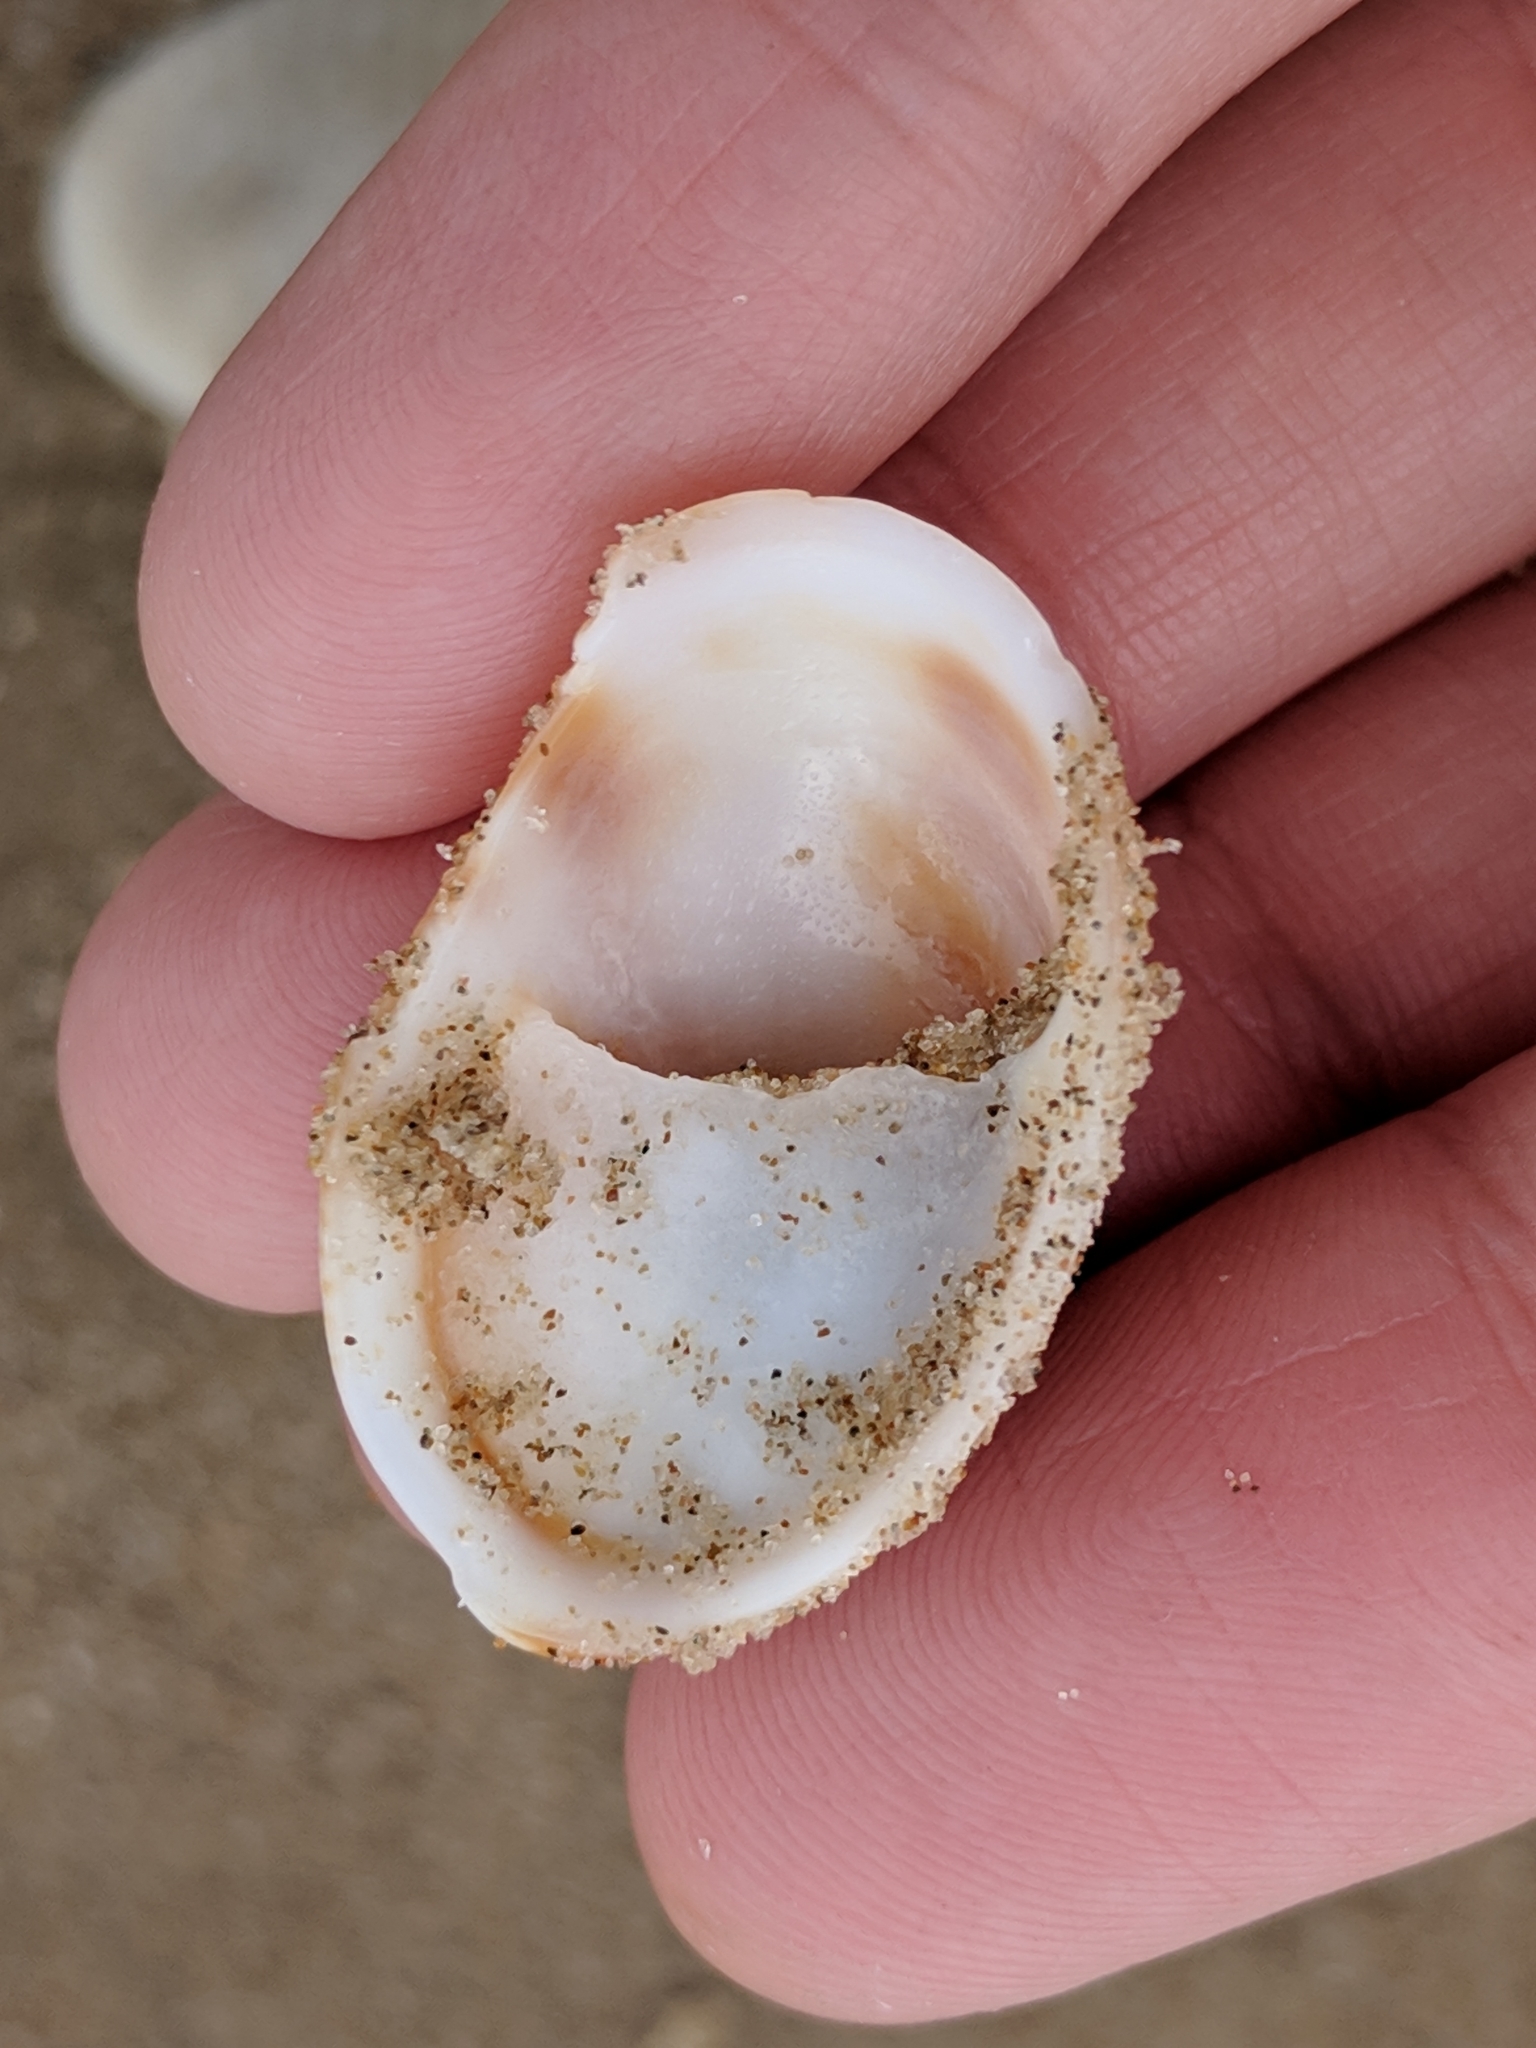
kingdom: Animalia
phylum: Mollusca
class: Gastropoda
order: Littorinimorpha
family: Calyptraeidae
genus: Crepidula
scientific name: Crepidula fornicata
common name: Slipper limpet
